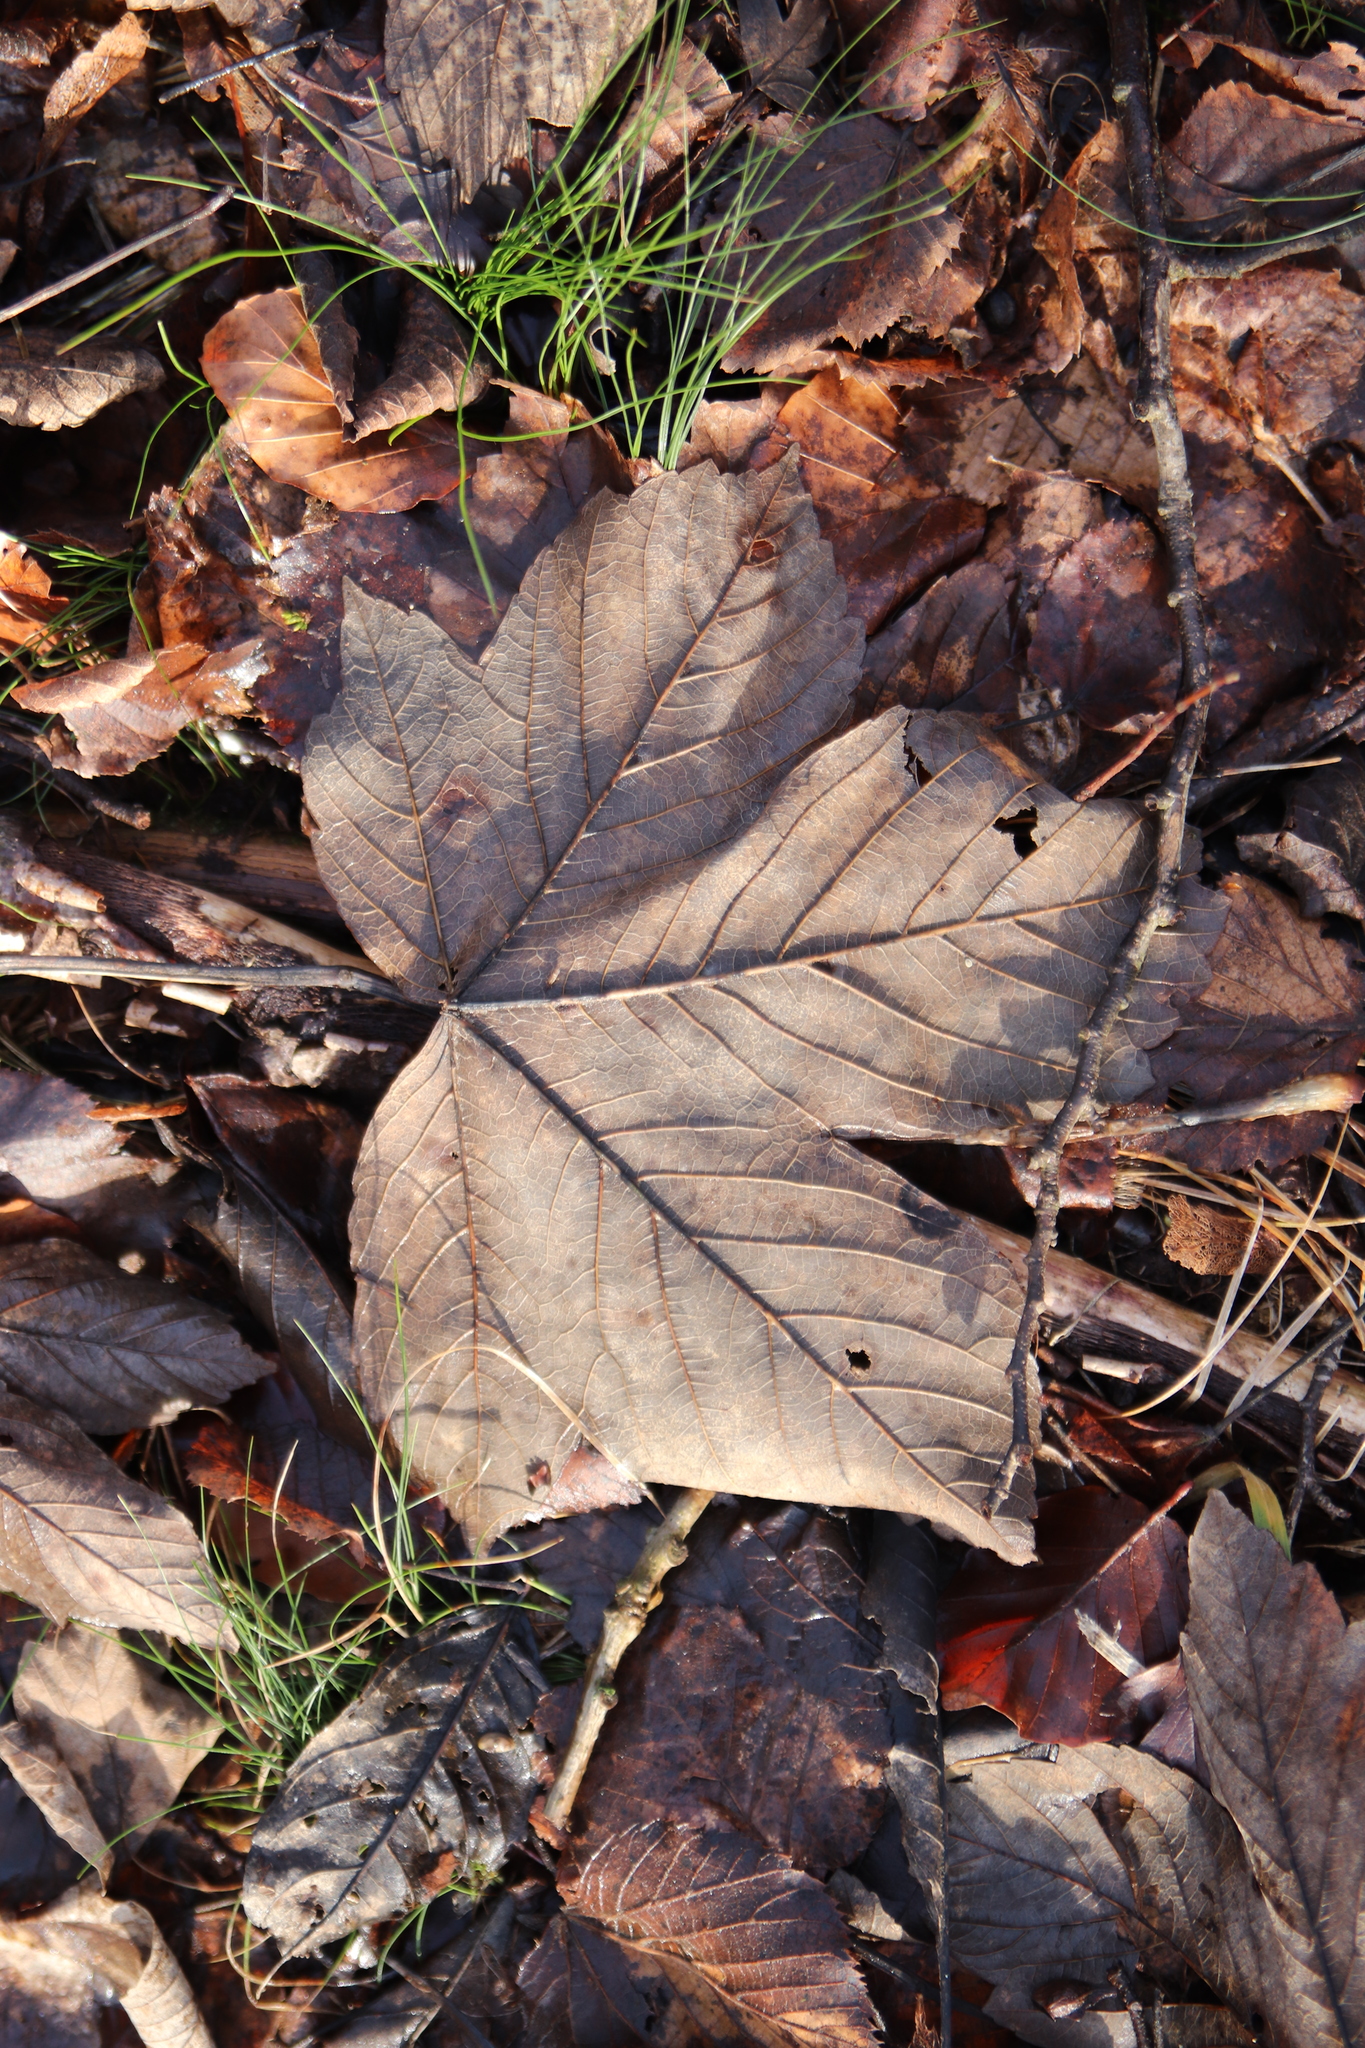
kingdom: Plantae
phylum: Tracheophyta
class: Magnoliopsida
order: Sapindales
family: Sapindaceae
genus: Acer
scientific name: Acer pseudoplatanus
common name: Sycamore
